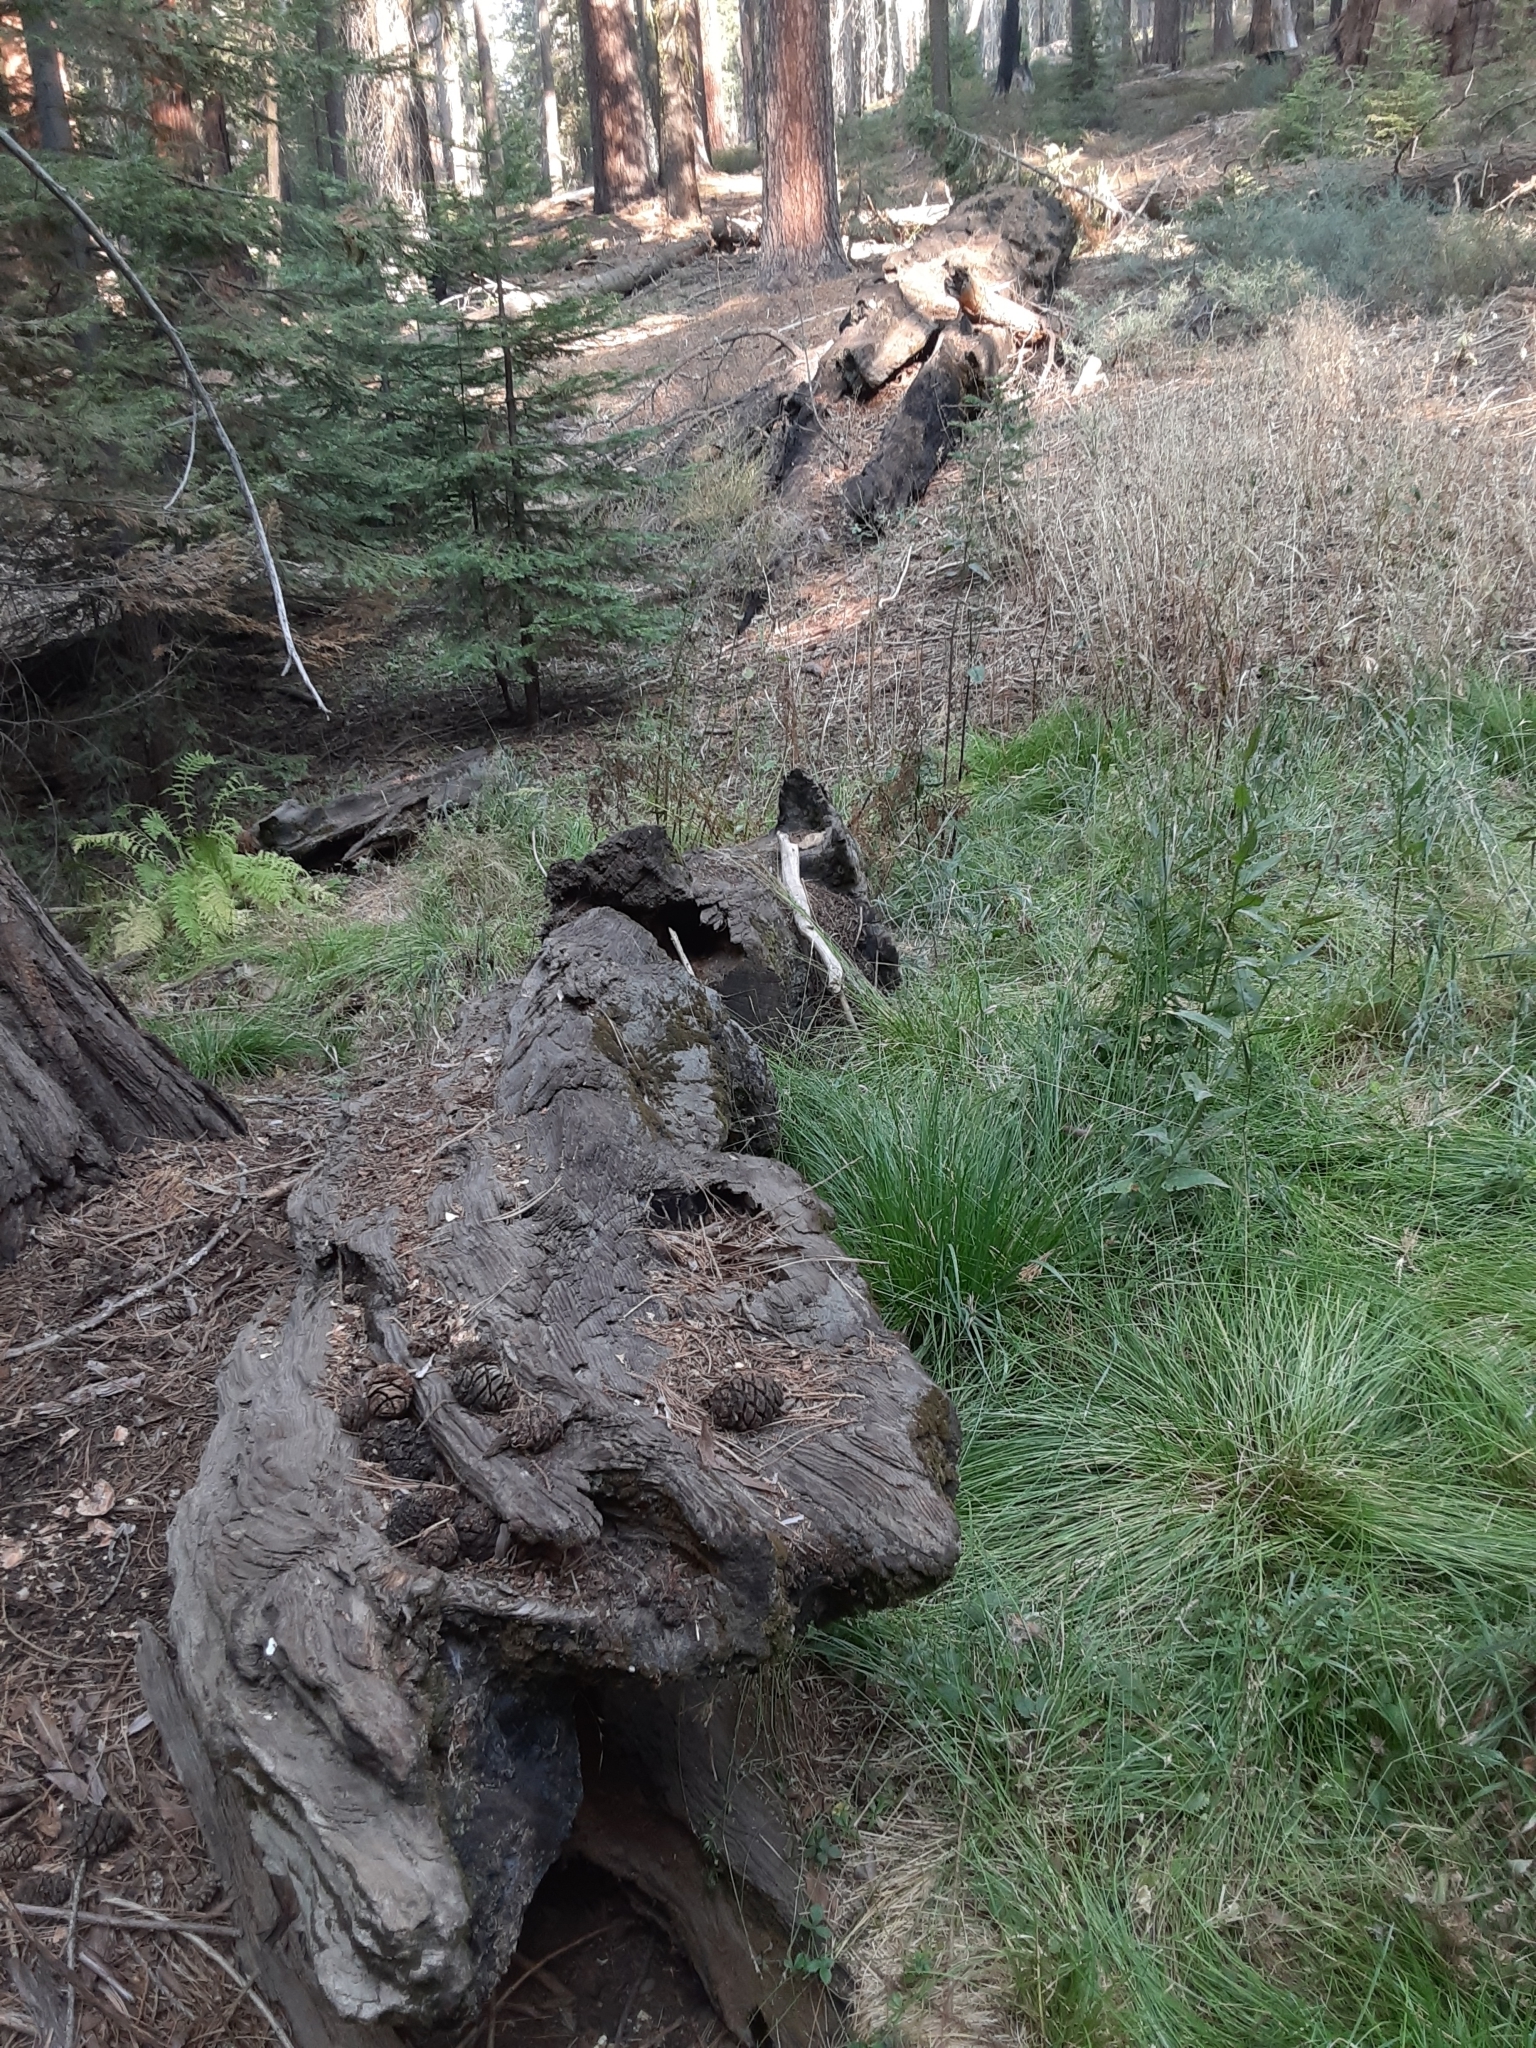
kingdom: Plantae
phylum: Tracheophyta
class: Pinopsida
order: Pinales
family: Cupressaceae
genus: Sequoiadendron
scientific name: Sequoiadendron giganteum
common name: Wellingtonia
